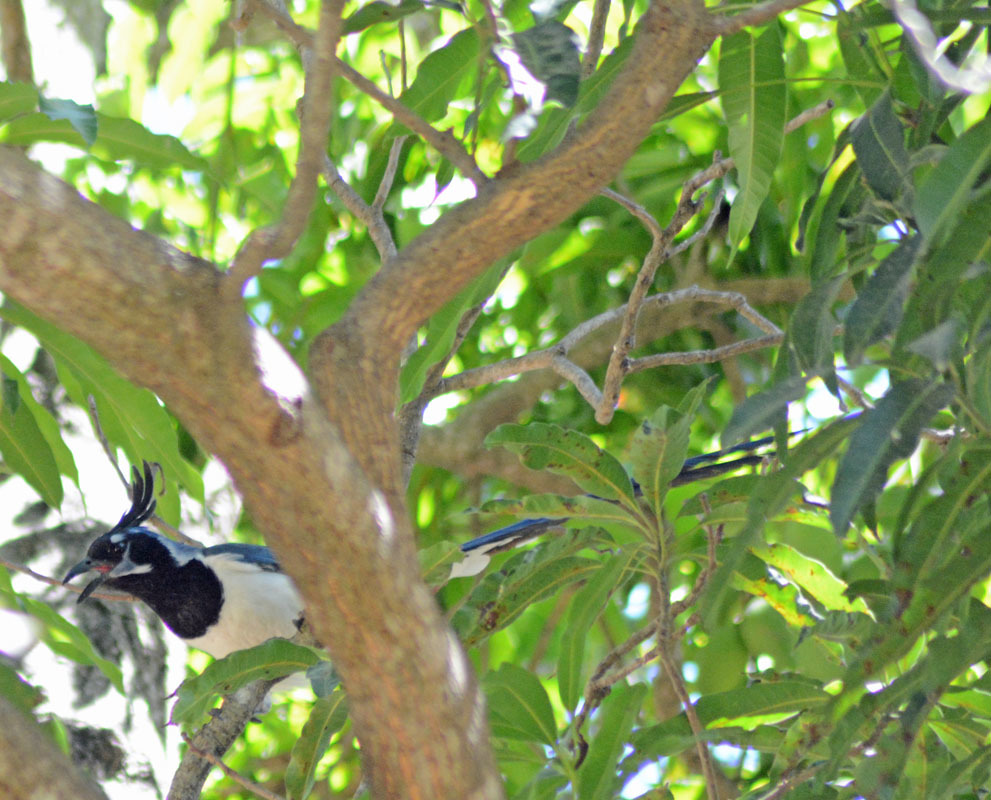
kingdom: Animalia
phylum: Chordata
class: Aves
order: Passeriformes
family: Corvidae
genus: Calocitta
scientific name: Calocitta colliei
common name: Black-throated magpie-jay
